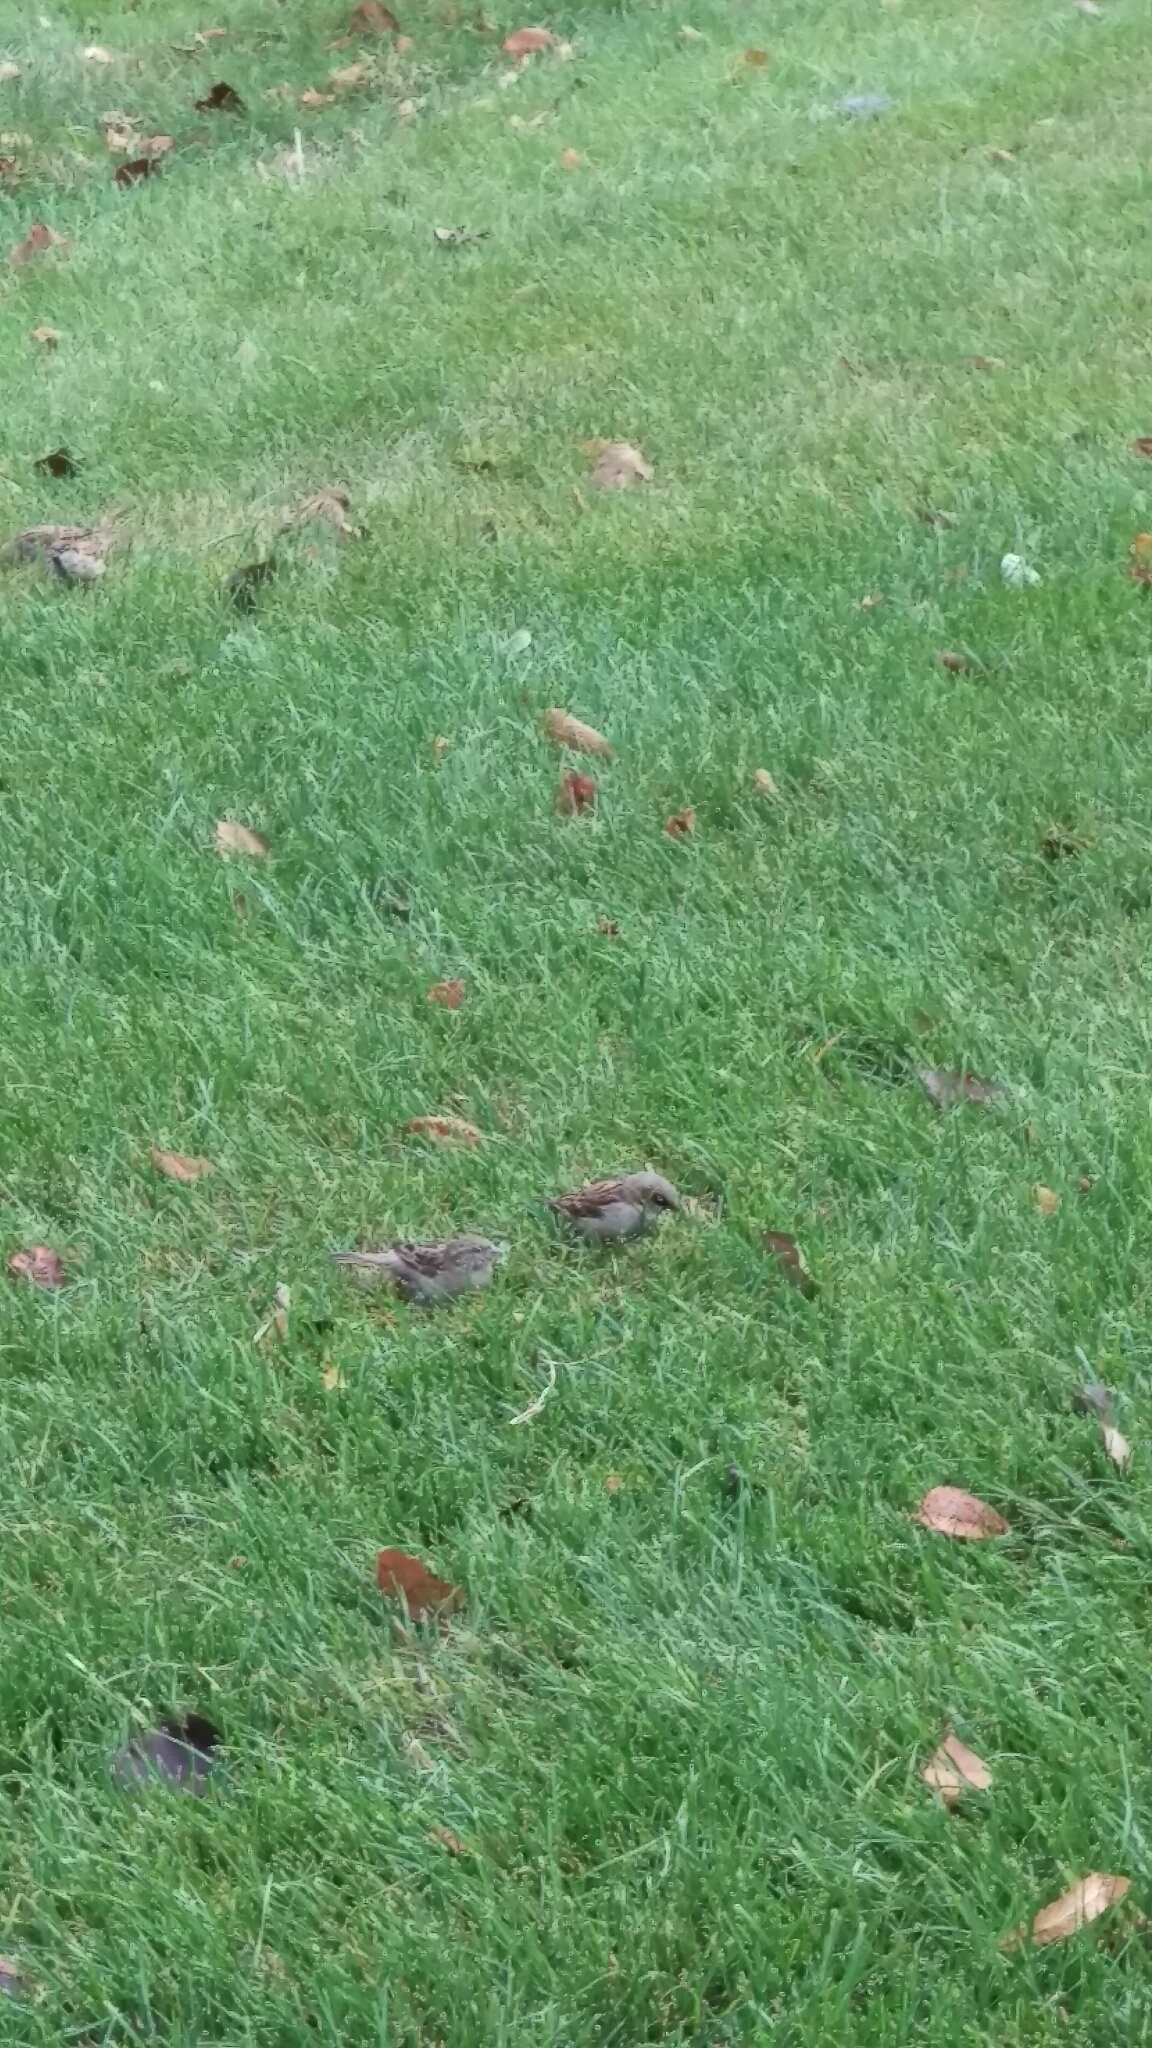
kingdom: Animalia
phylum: Chordata
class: Aves
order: Passeriformes
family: Passeridae
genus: Passer
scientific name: Passer domesticus
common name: House sparrow
